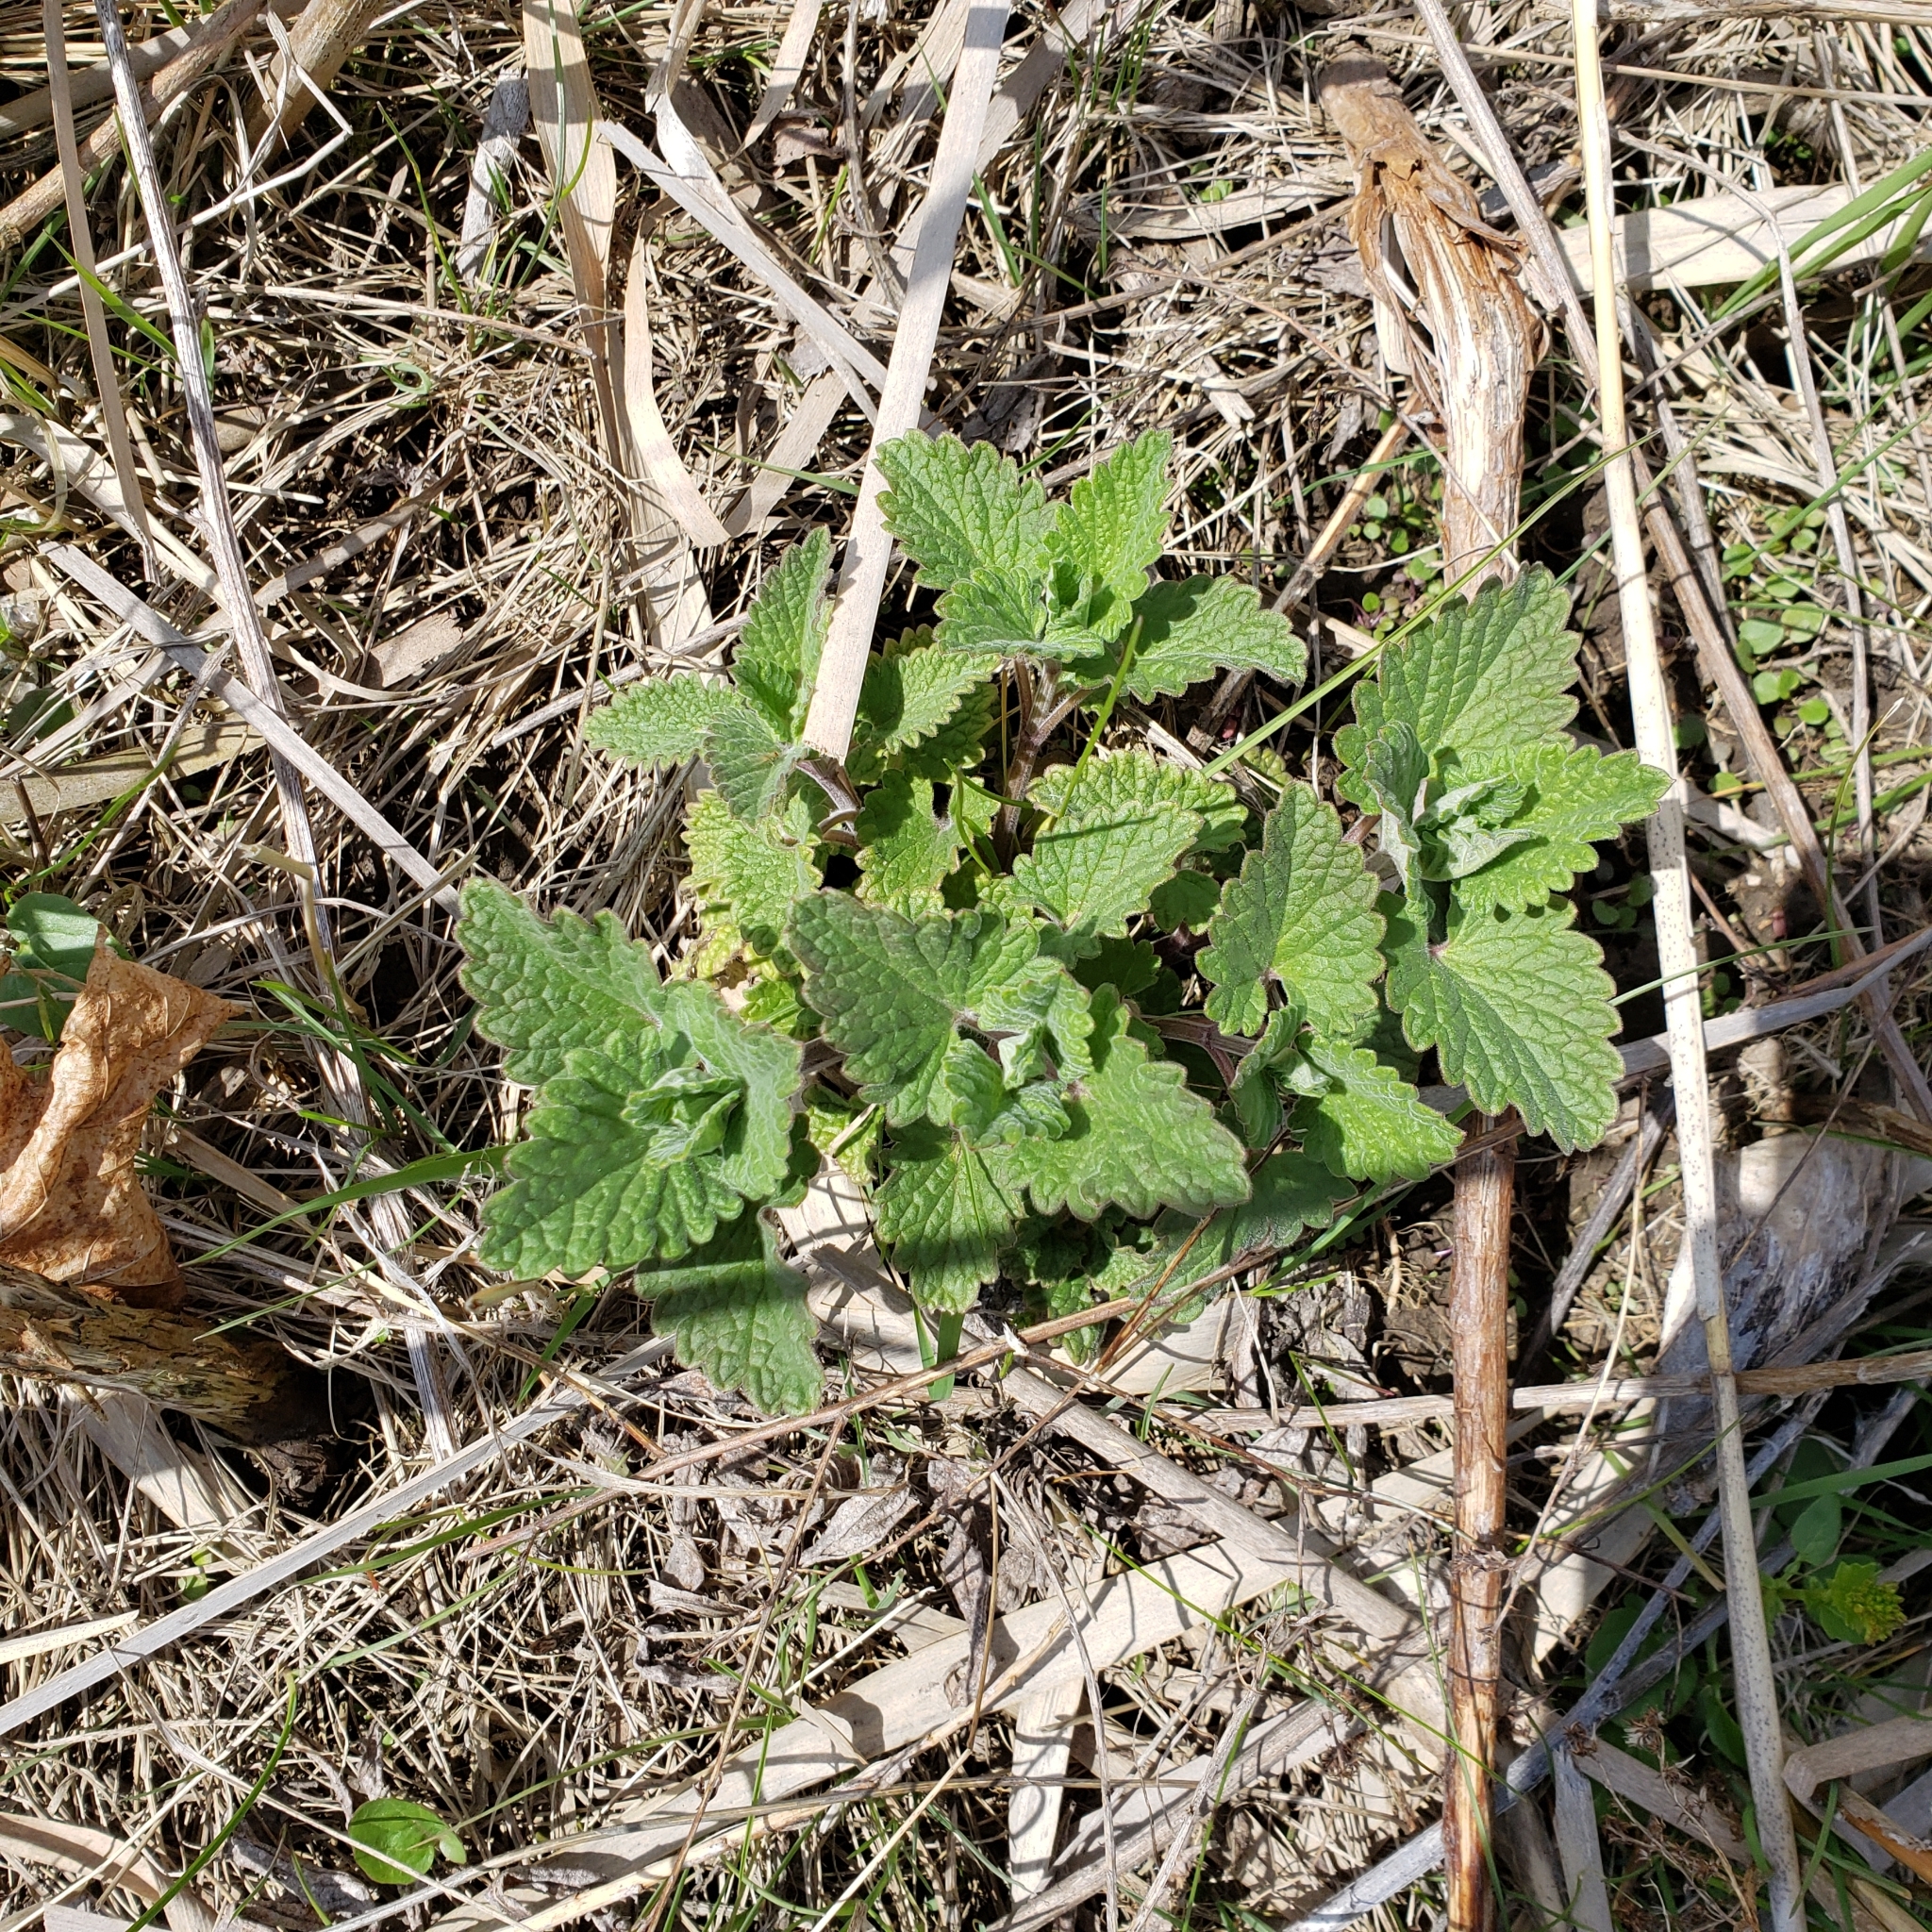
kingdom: Plantae
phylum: Tracheophyta
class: Magnoliopsida
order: Lamiales
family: Lamiaceae
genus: Nepeta
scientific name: Nepeta cataria
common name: Catnip
